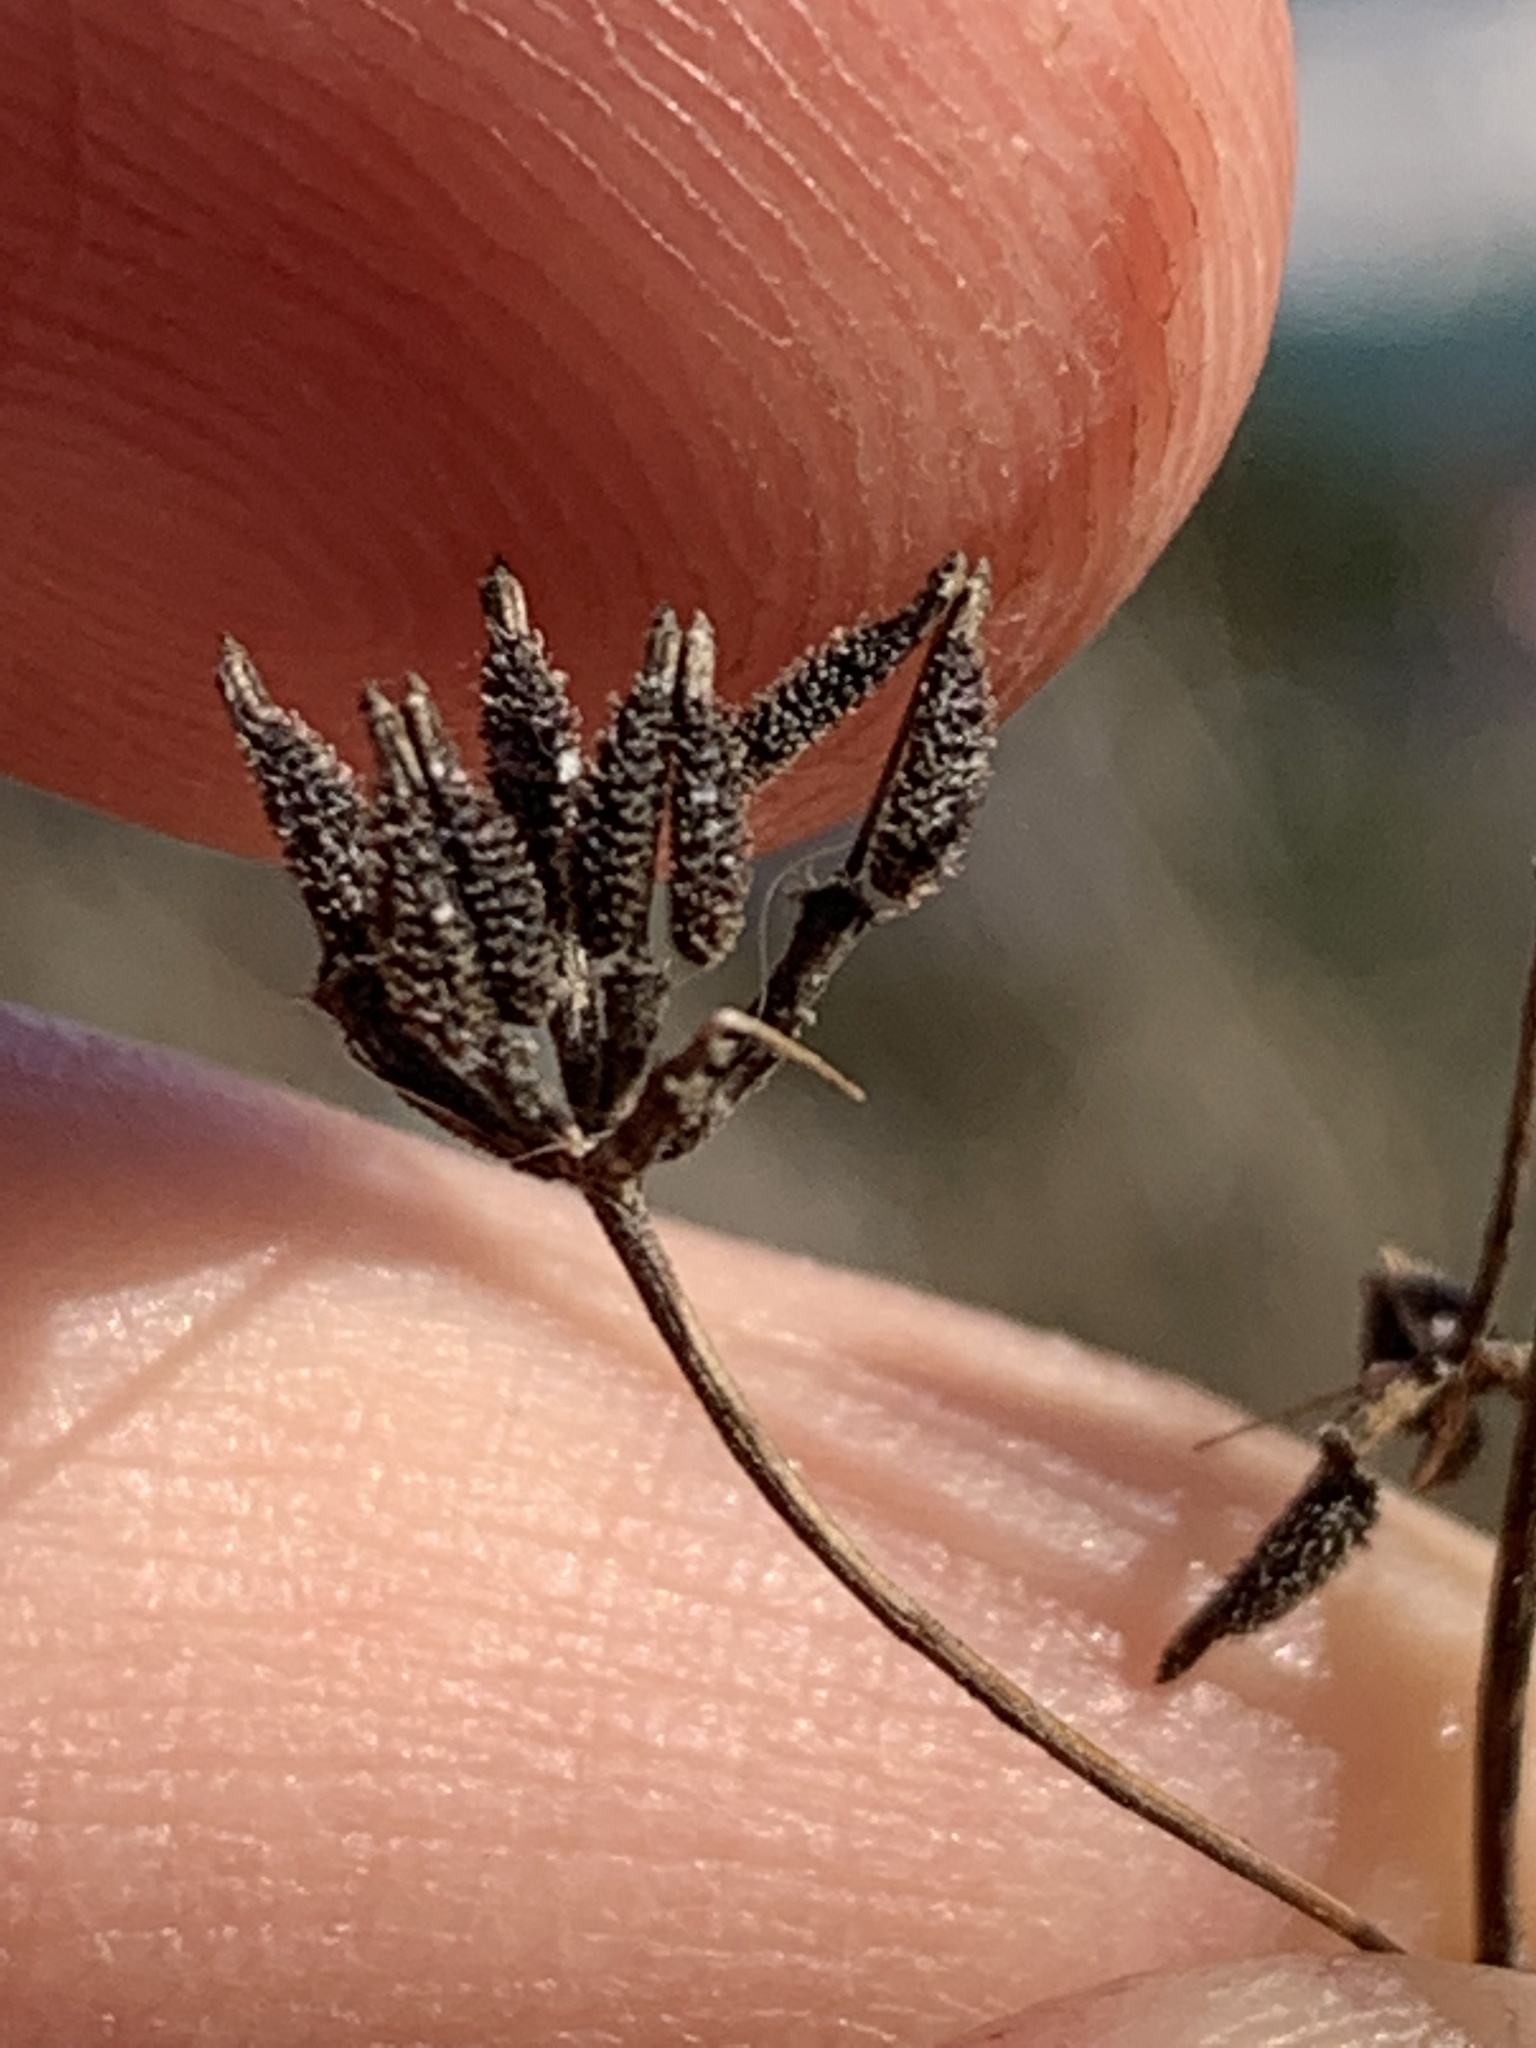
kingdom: Plantae
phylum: Tracheophyta
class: Magnoliopsida
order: Apiales
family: Apiaceae
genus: Anthriscus
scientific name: Anthriscus caucalis
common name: Bur chervil
